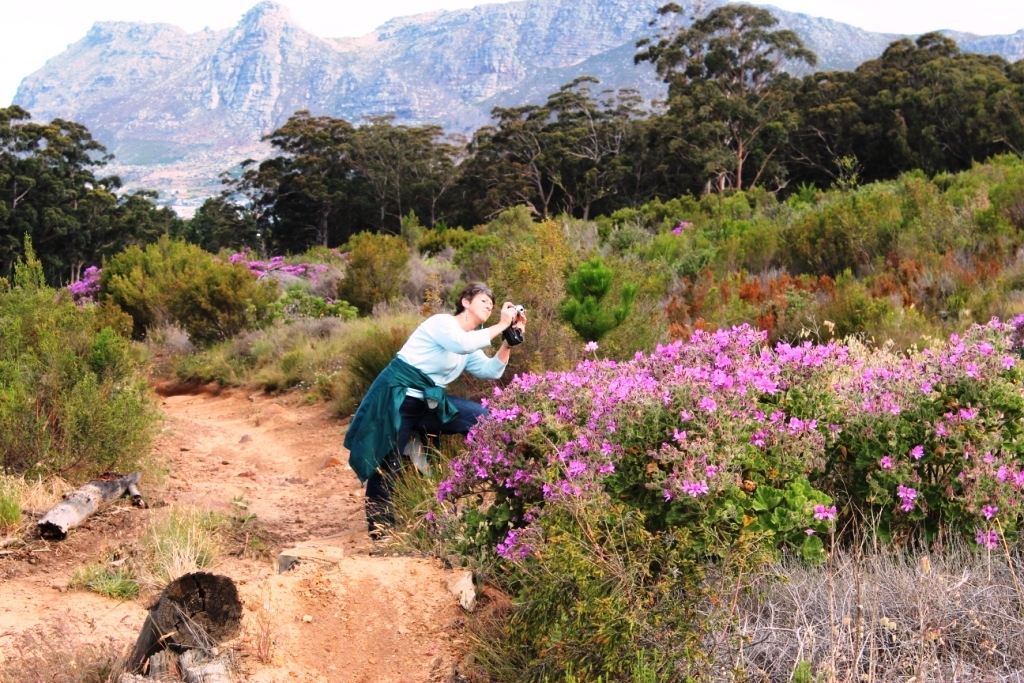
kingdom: Plantae
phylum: Tracheophyta
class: Magnoliopsida
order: Geraniales
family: Geraniaceae
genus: Pelargonium
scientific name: Pelargonium cucullatum
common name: Tree pelargonium
